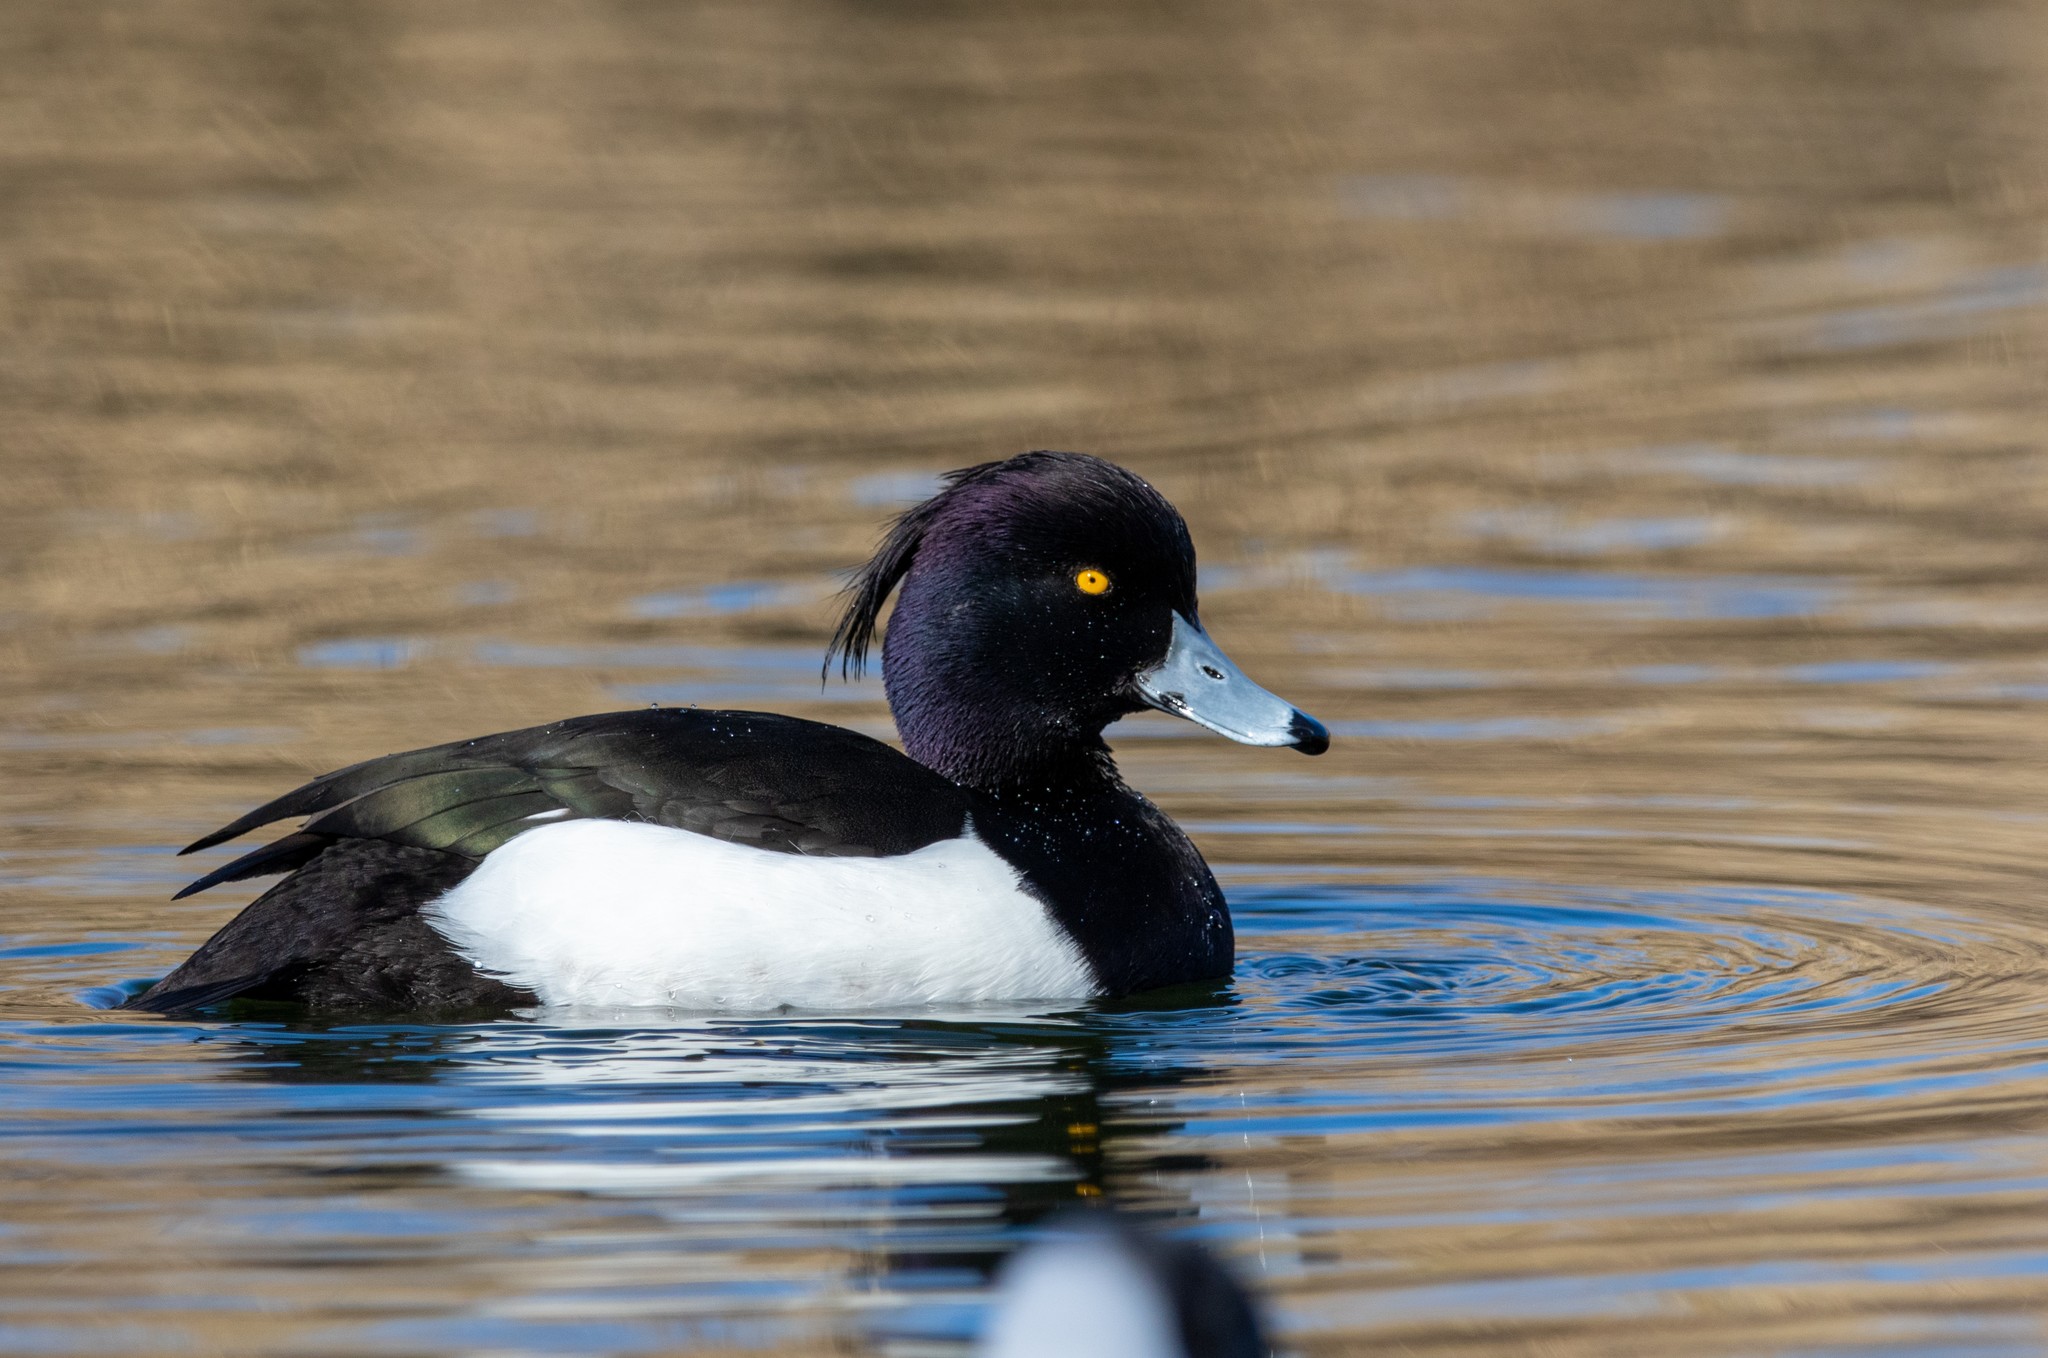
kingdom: Animalia
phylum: Chordata
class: Aves
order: Anseriformes
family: Anatidae
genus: Aythya
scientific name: Aythya fuligula
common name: Tufted duck
